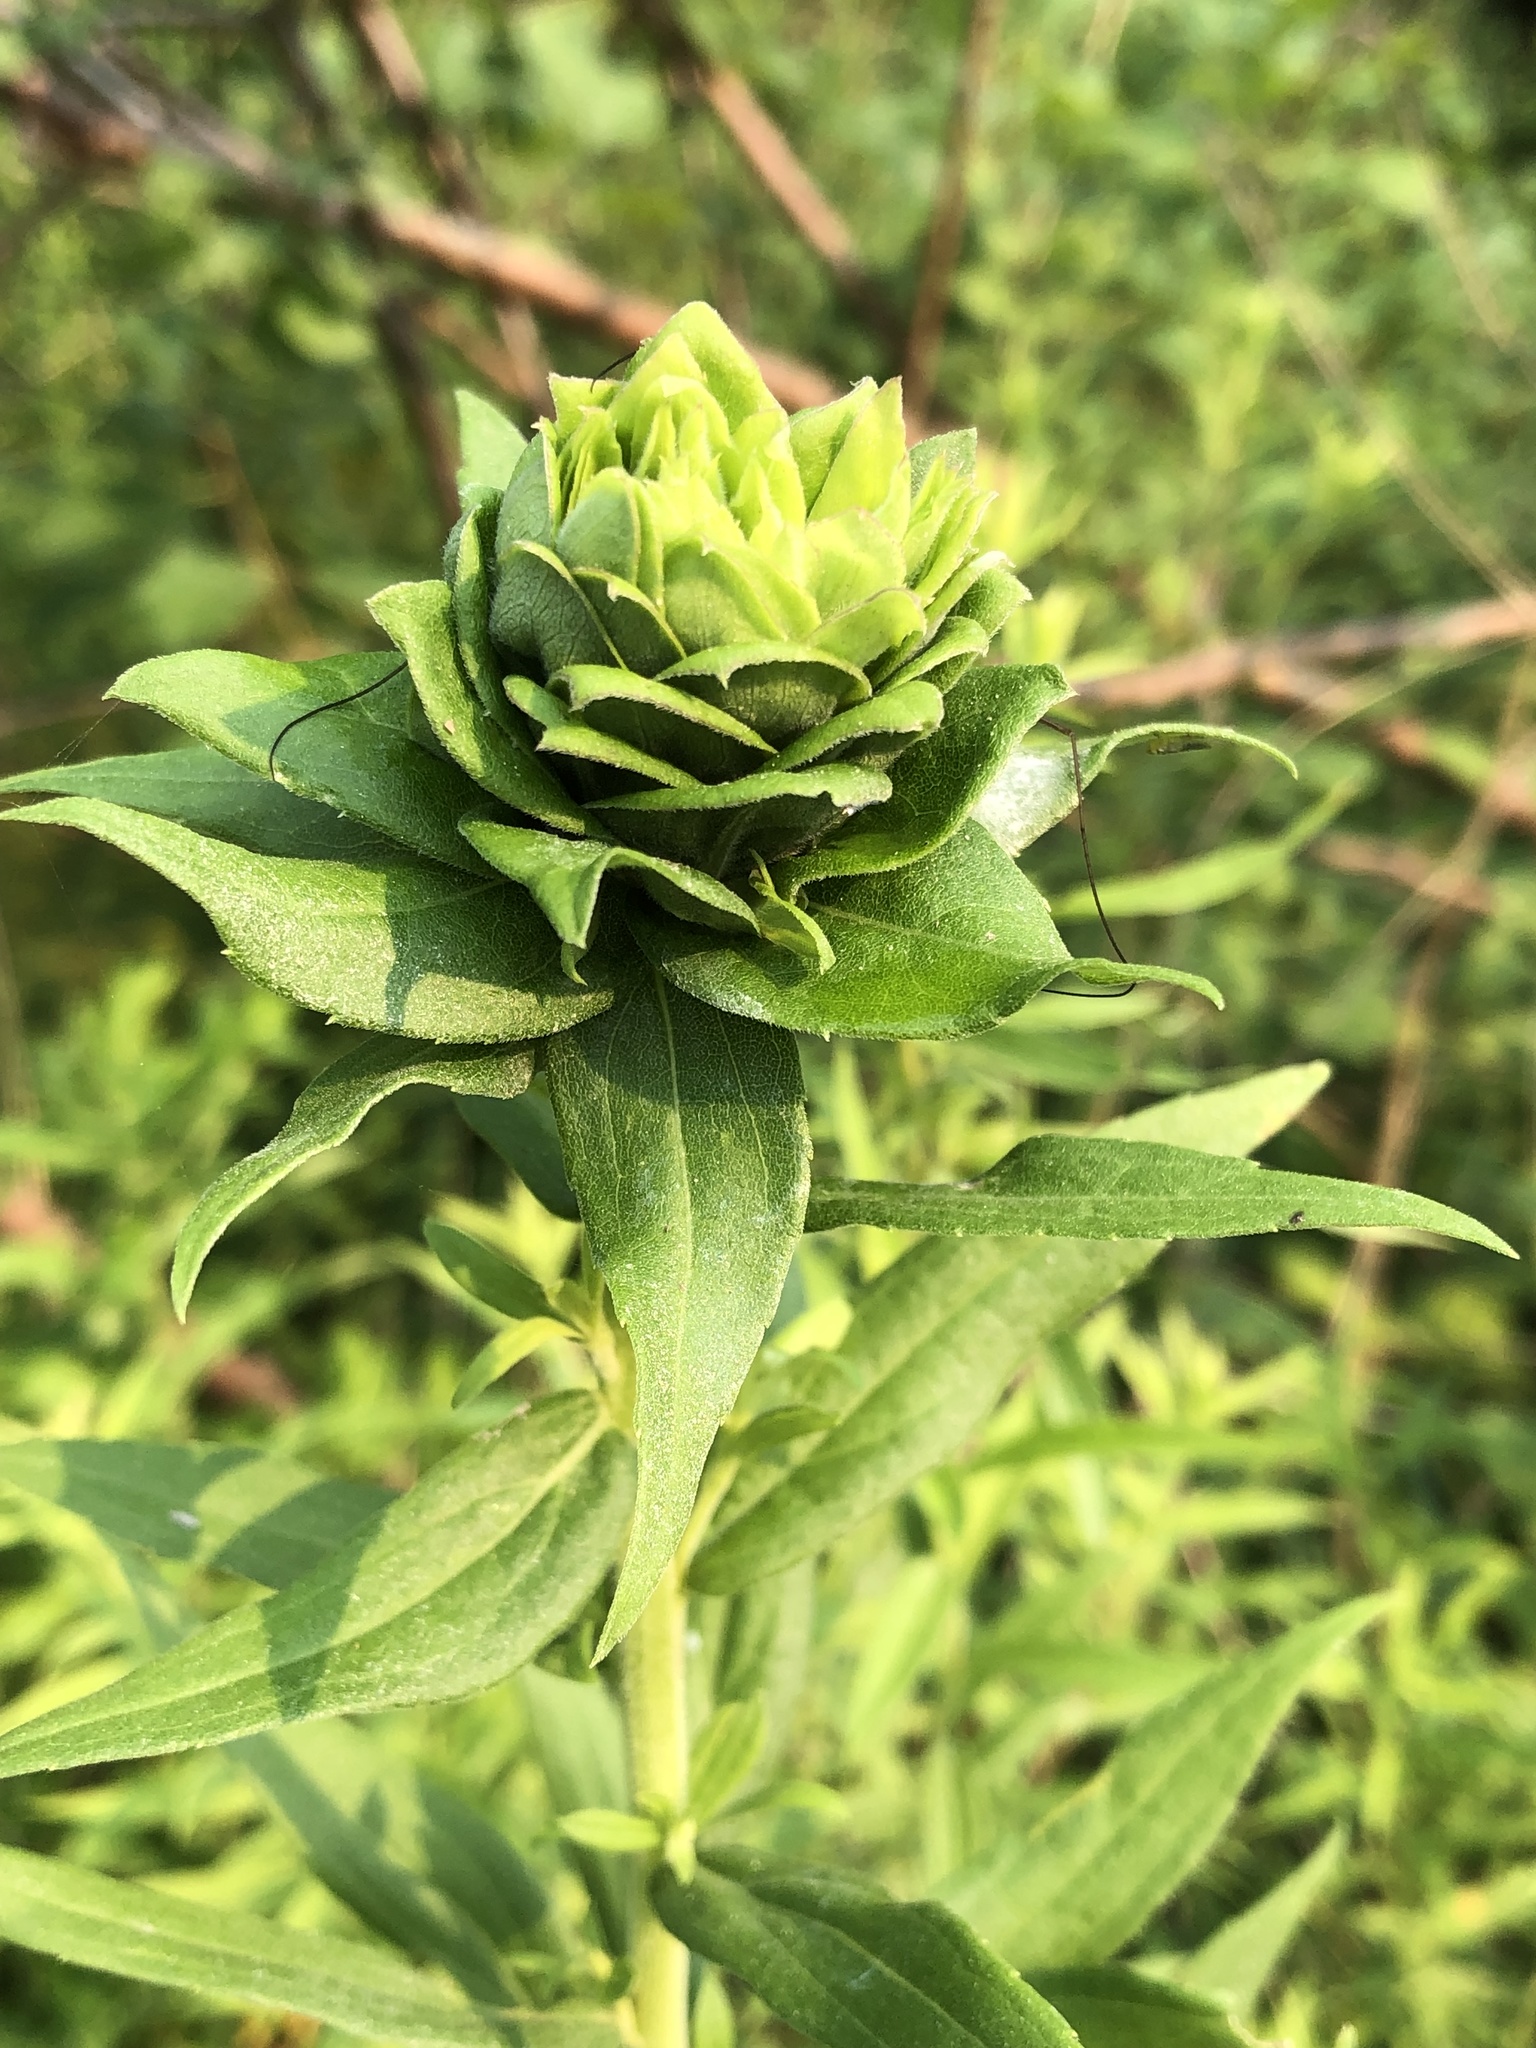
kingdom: Animalia
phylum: Arthropoda
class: Insecta
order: Diptera
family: Cecidomyiidae
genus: Rhopalomyia
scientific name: Rhopalomyia solidaginis
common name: Goldenrod bunch gall midge
